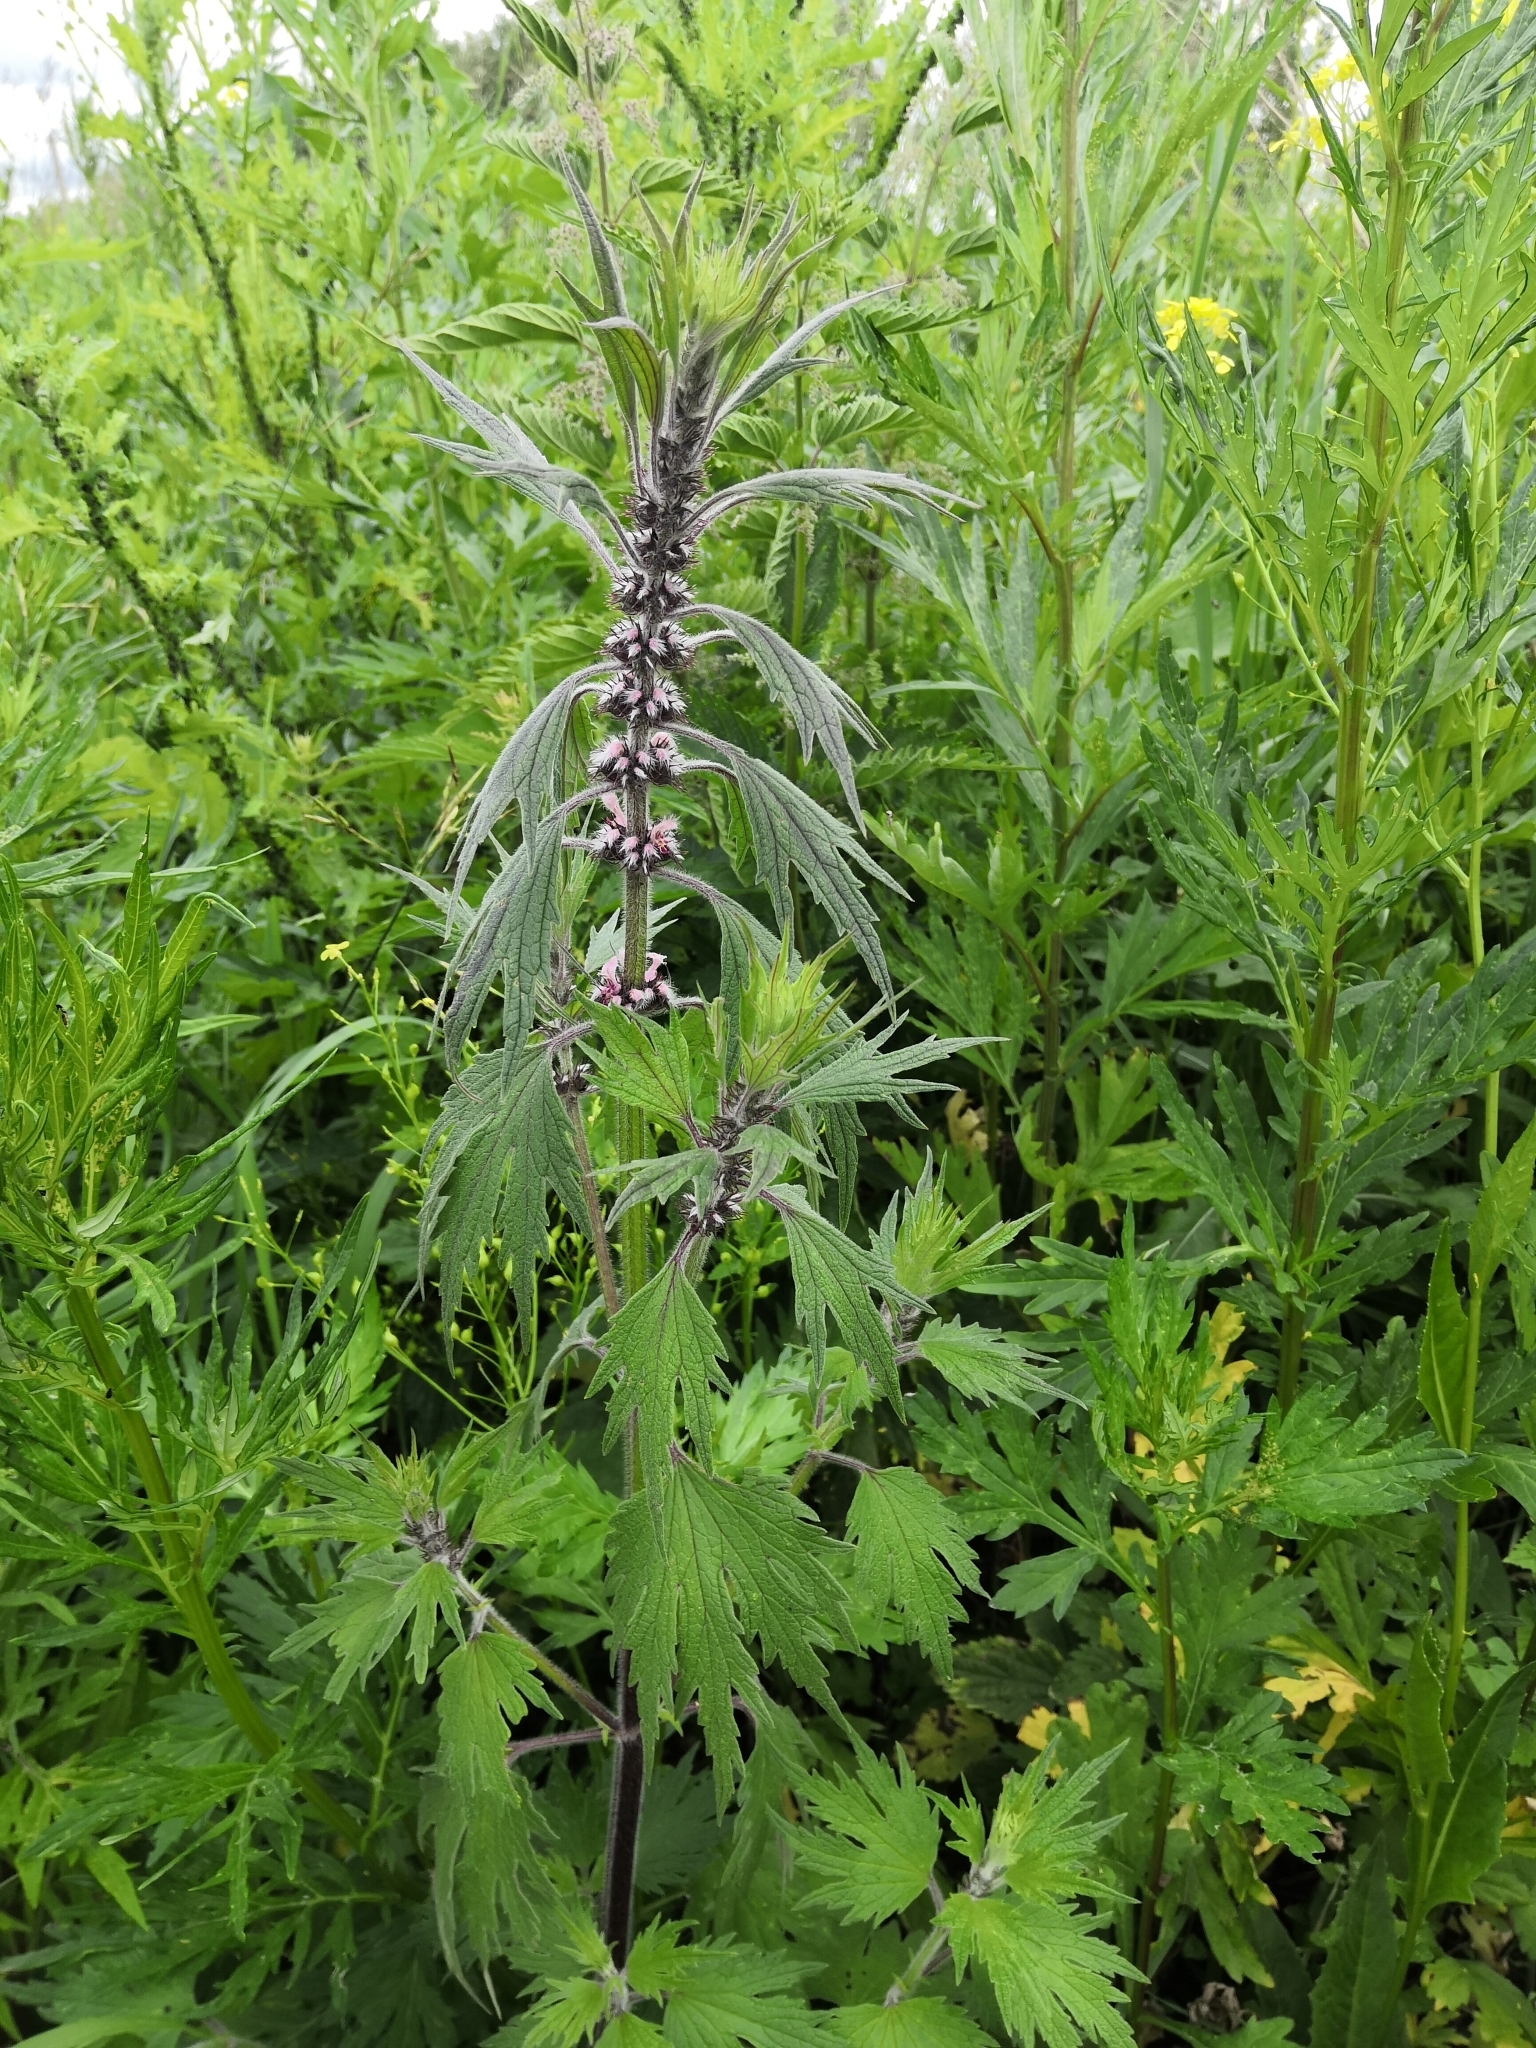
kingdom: Plantae
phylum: Tracheophyta
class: Magnoliopsida
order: Lamiales
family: Lamiaceae
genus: Leonurus
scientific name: Leonurus quinquelobatus
